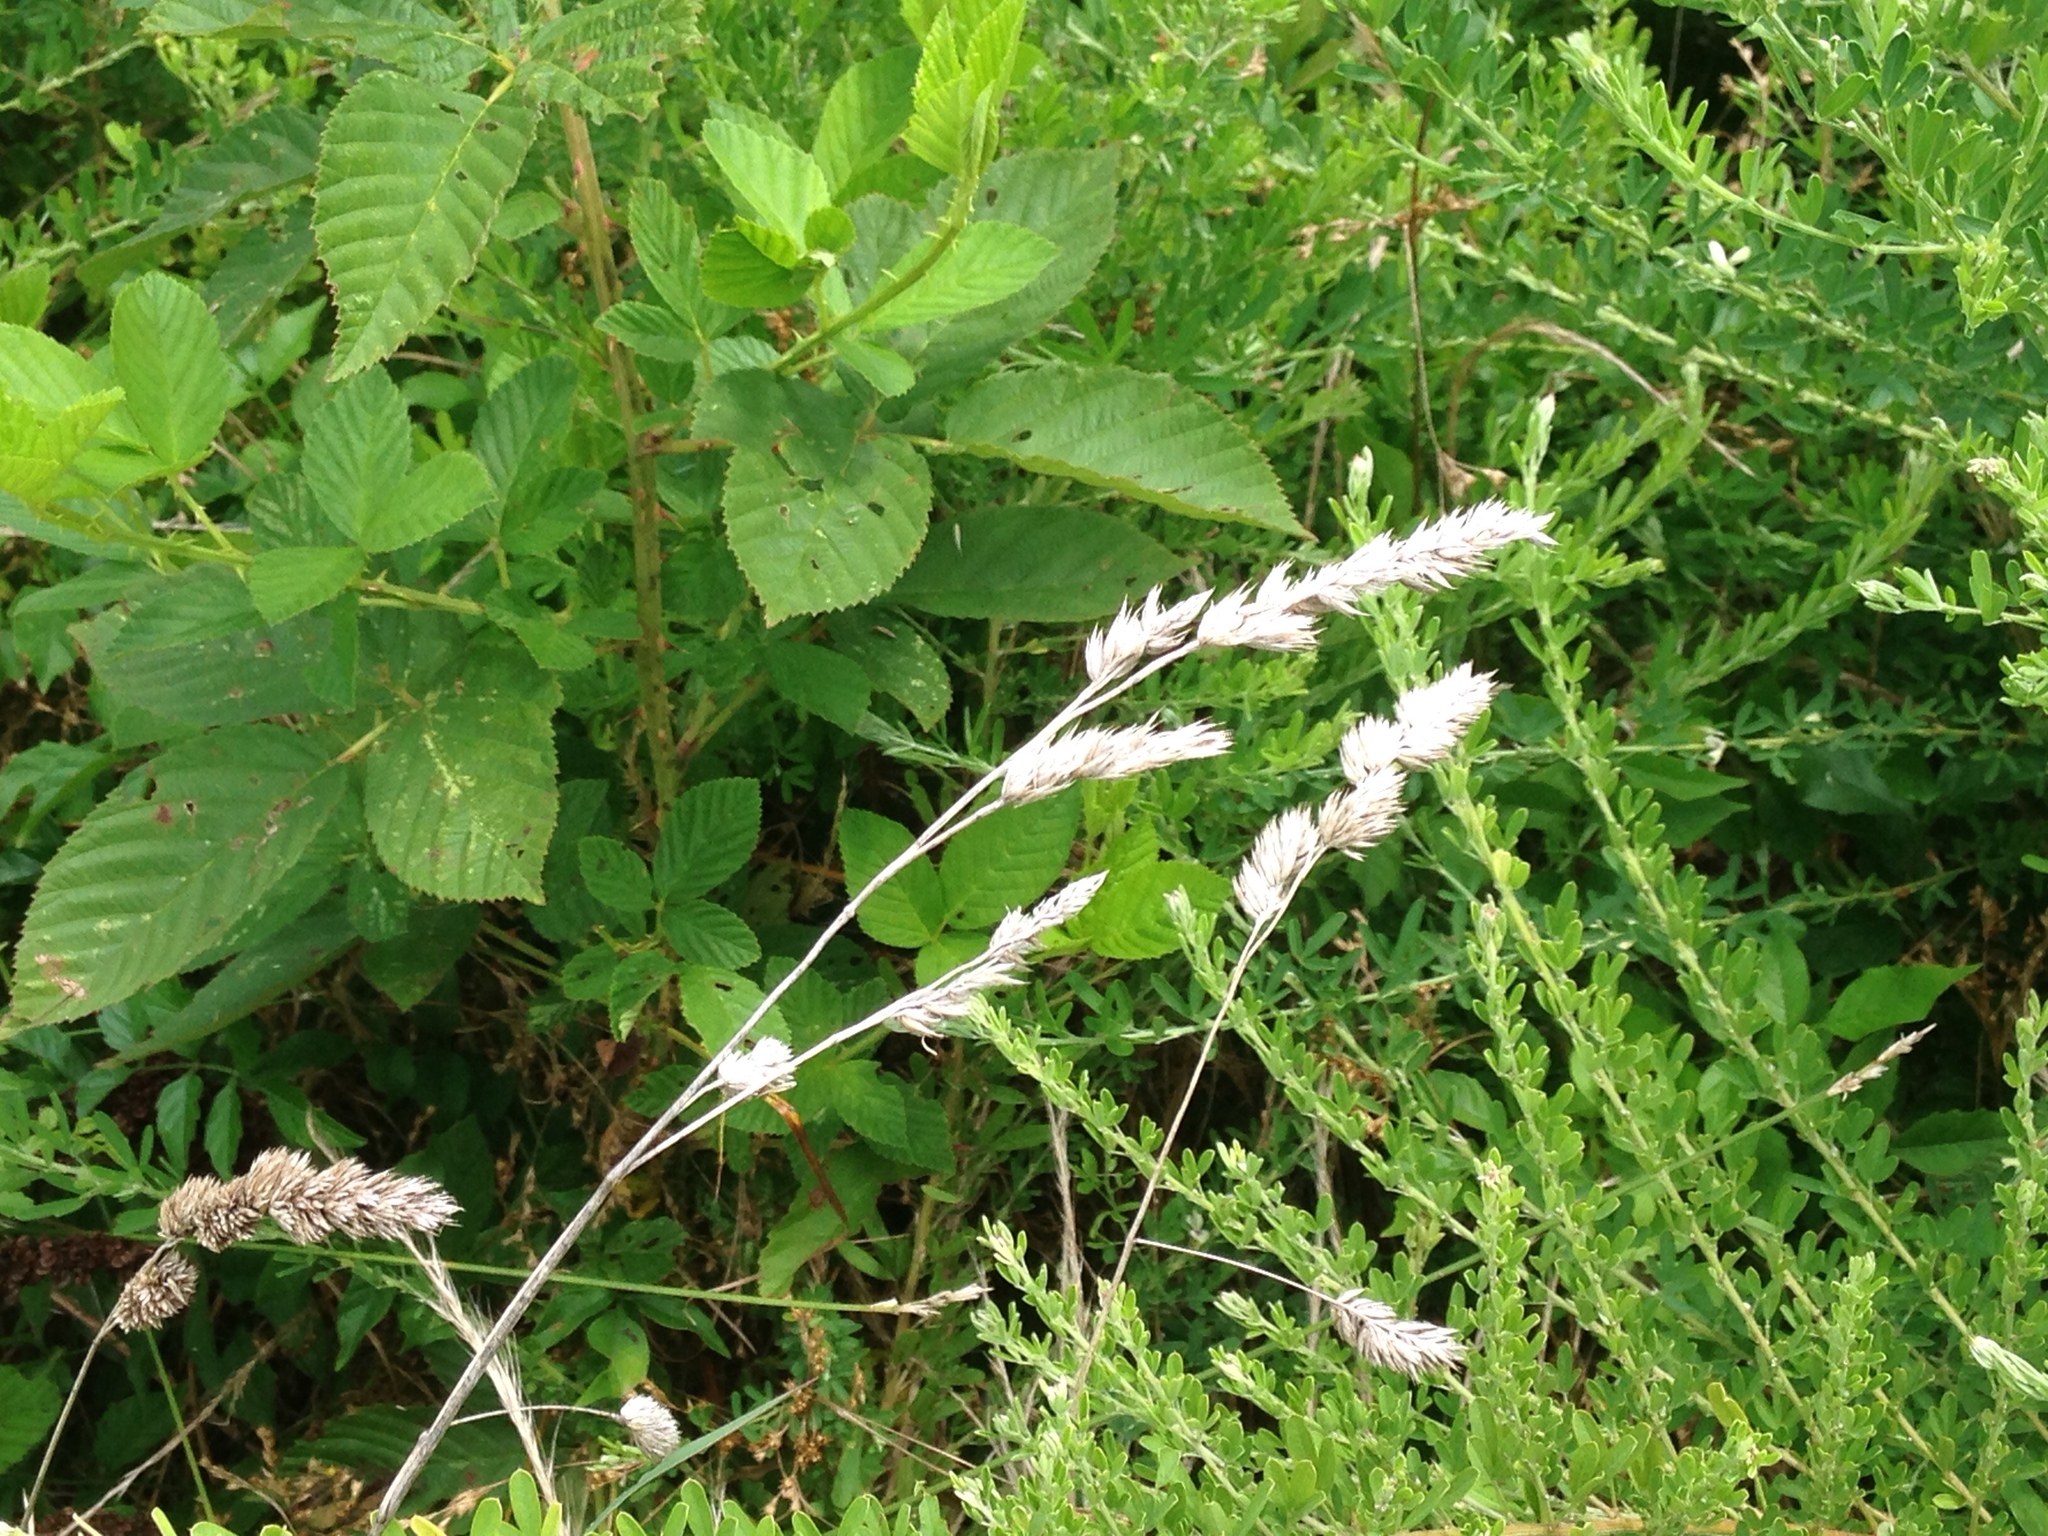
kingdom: Plantae
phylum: Tracheophyta
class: Liliopsida
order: Poales
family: Poaceae
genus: Dactylis
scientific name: Dactylis glomerata
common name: Orchardgrass
